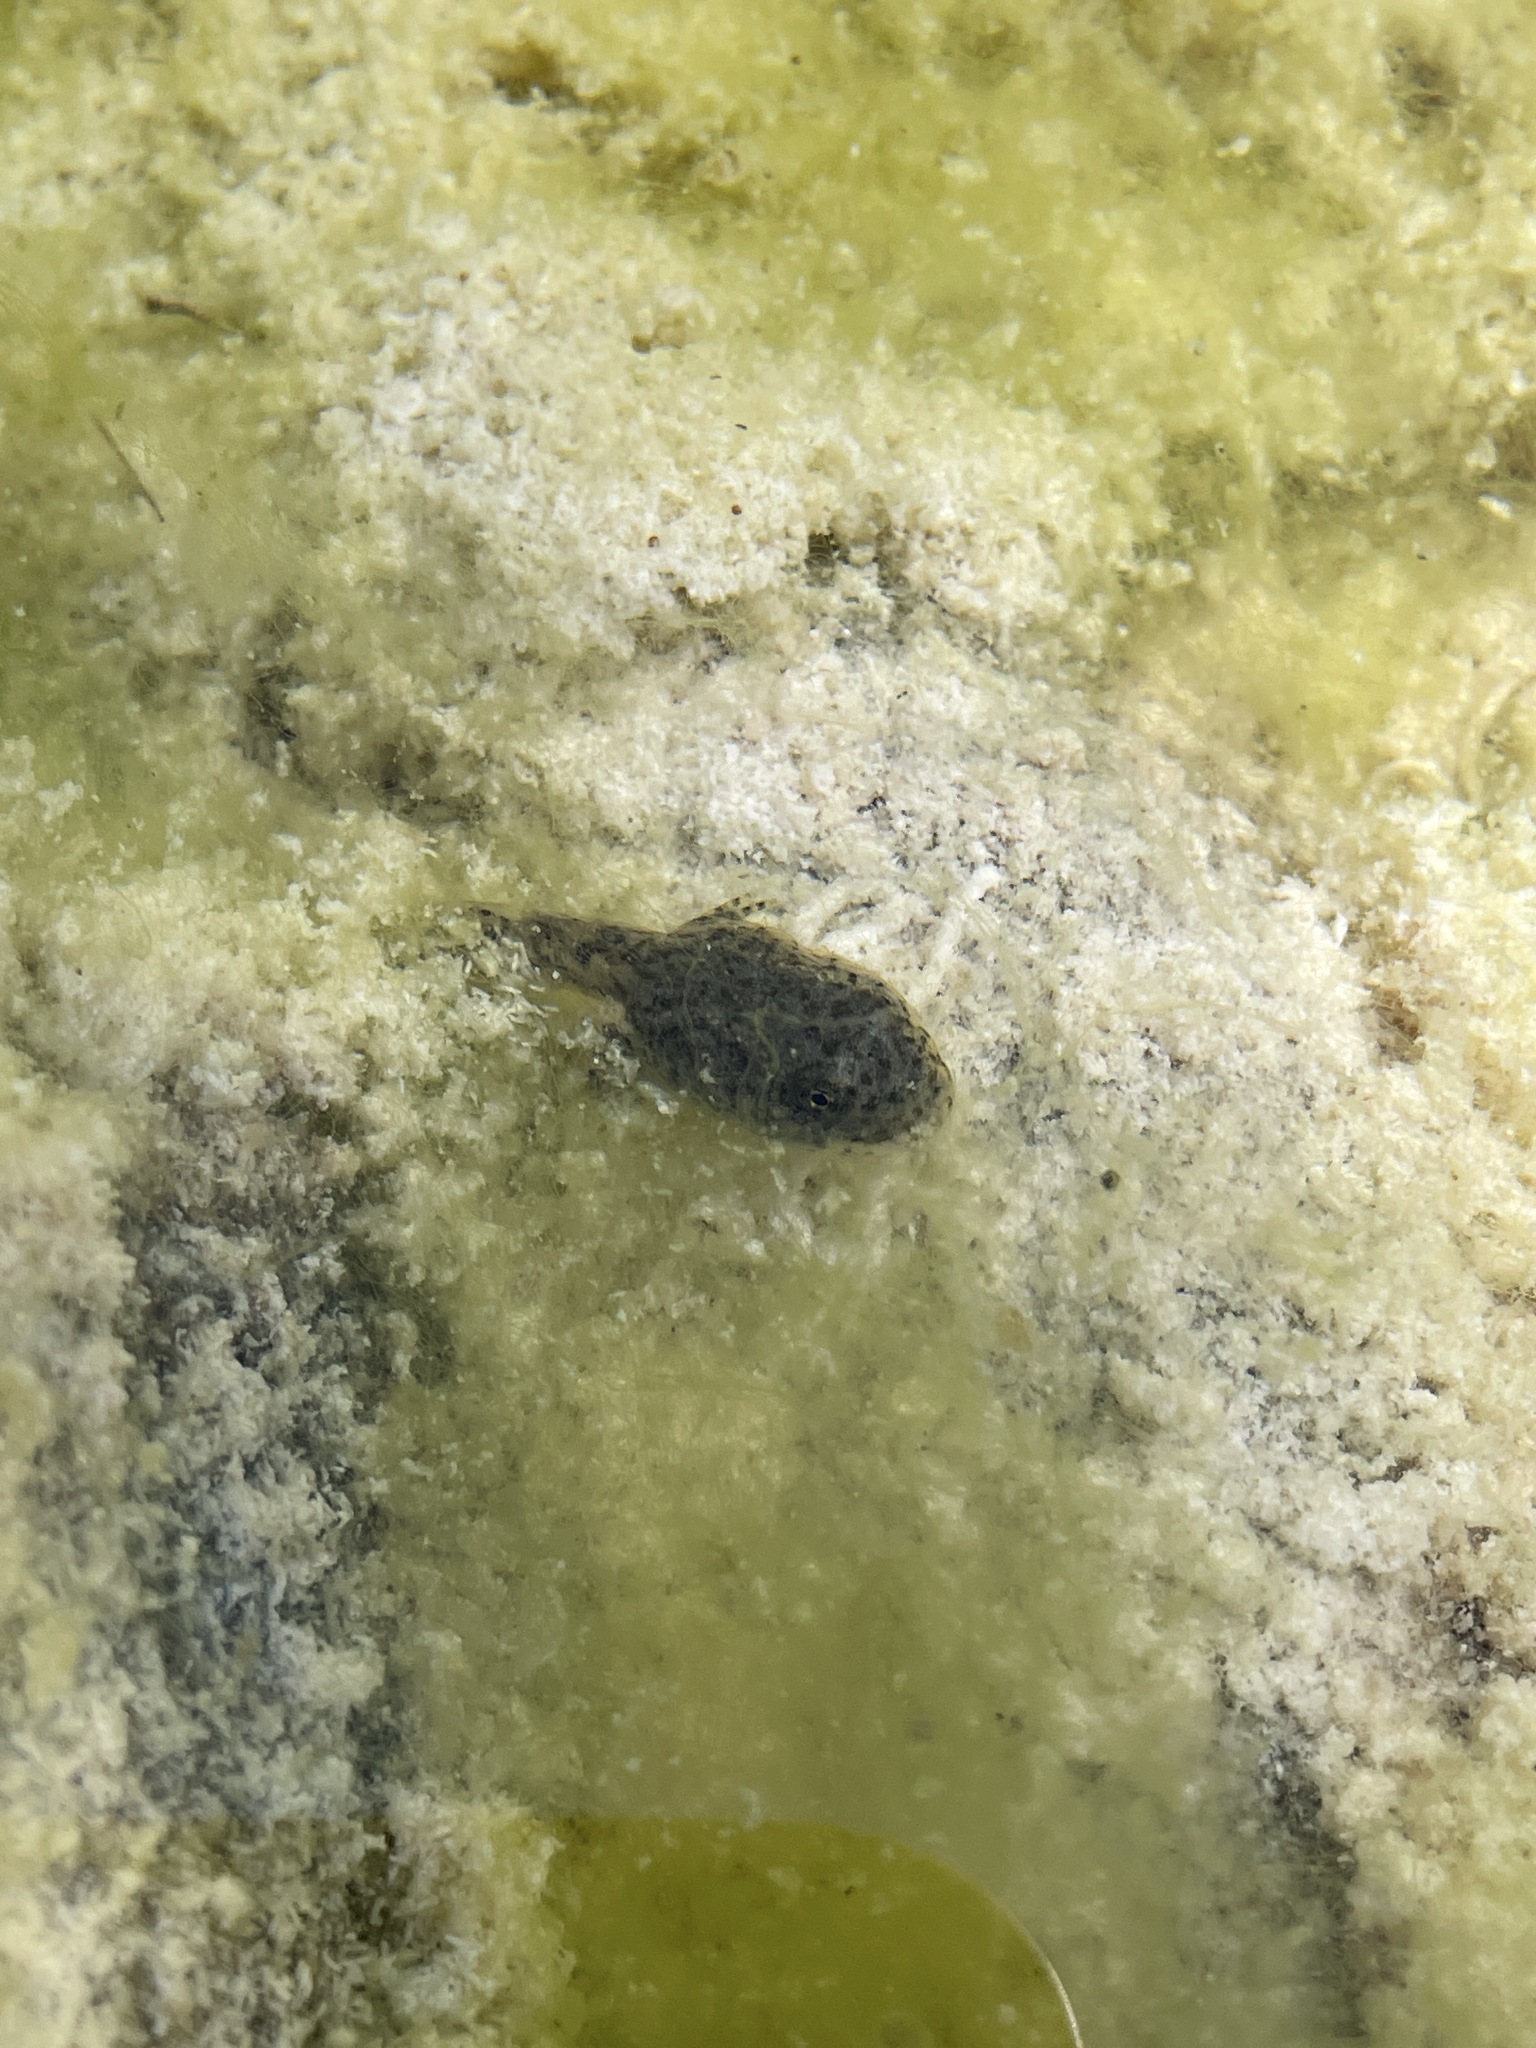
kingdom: Animalia
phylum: Chordata
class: Amphibia
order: Anura
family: Ranidae
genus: Rana
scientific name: Rana boylii
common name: Foothill yellow-legged frog
